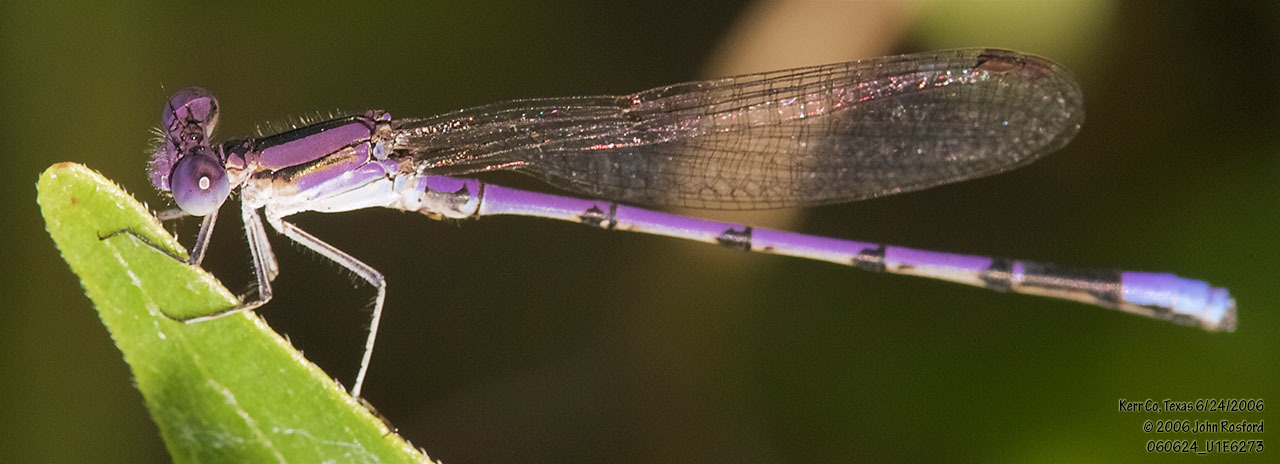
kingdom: Animalia
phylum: Arthropoda
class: Insecta
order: Odonata
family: Coenagrionidae
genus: Argia
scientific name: Argia fumipennis
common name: Variable dancer
